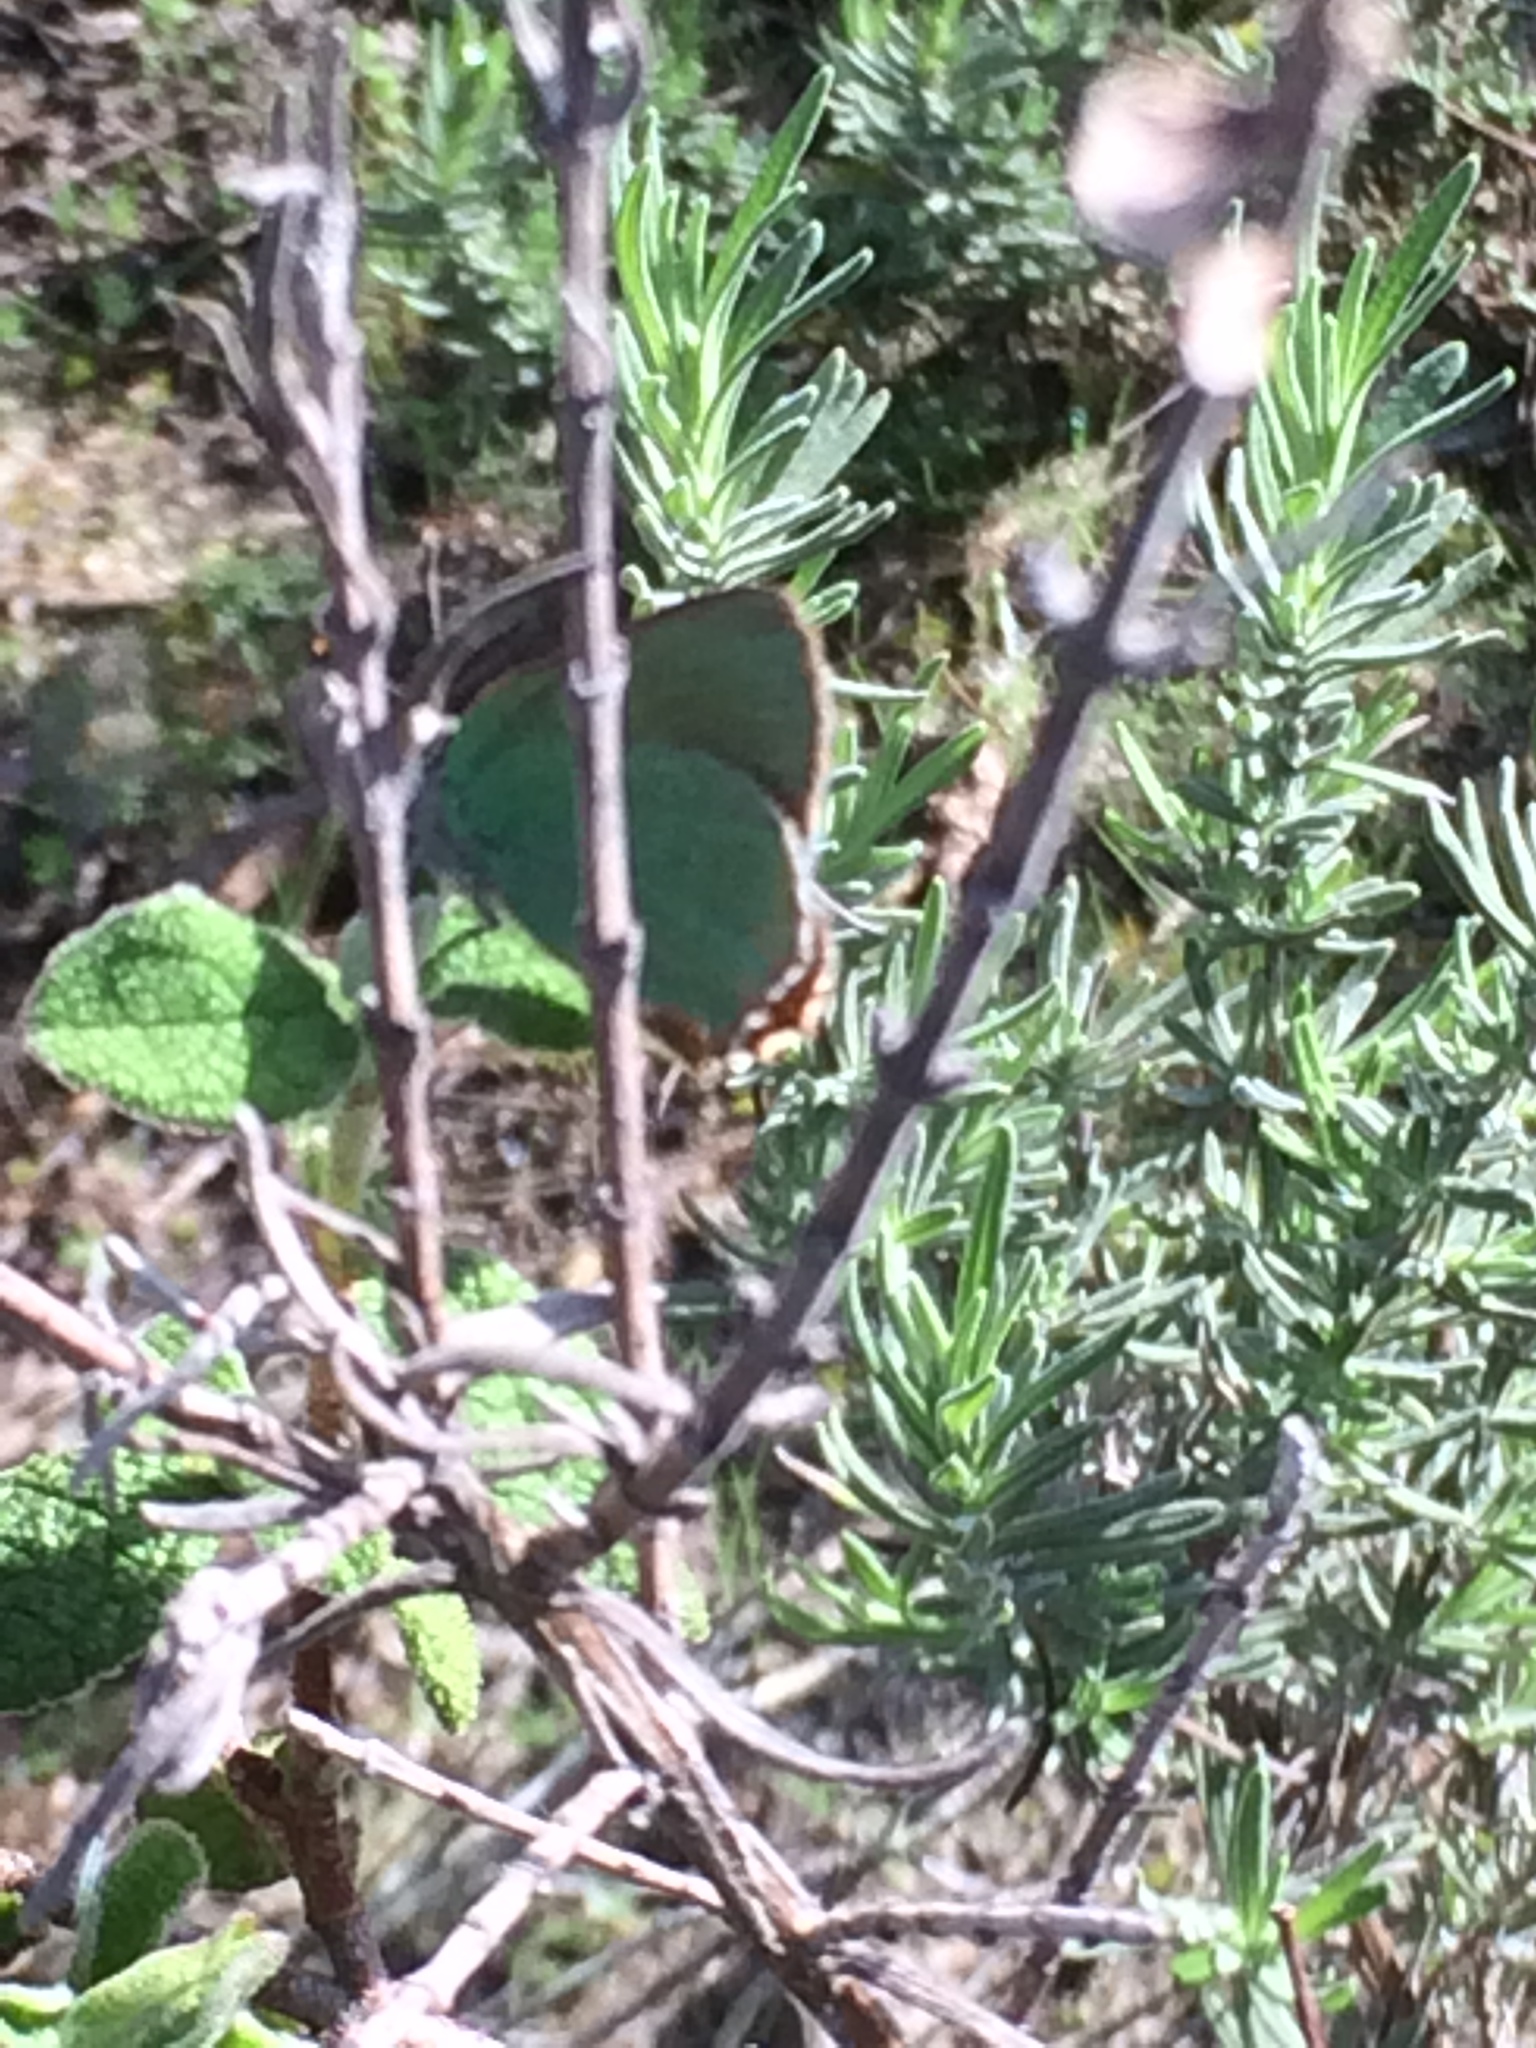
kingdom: Animalia
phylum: Arthropoda
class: Insecta
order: Lepidoptera
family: Lycaenidae
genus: Callophrys
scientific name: Callophrys rubi
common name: Green hairstreak
